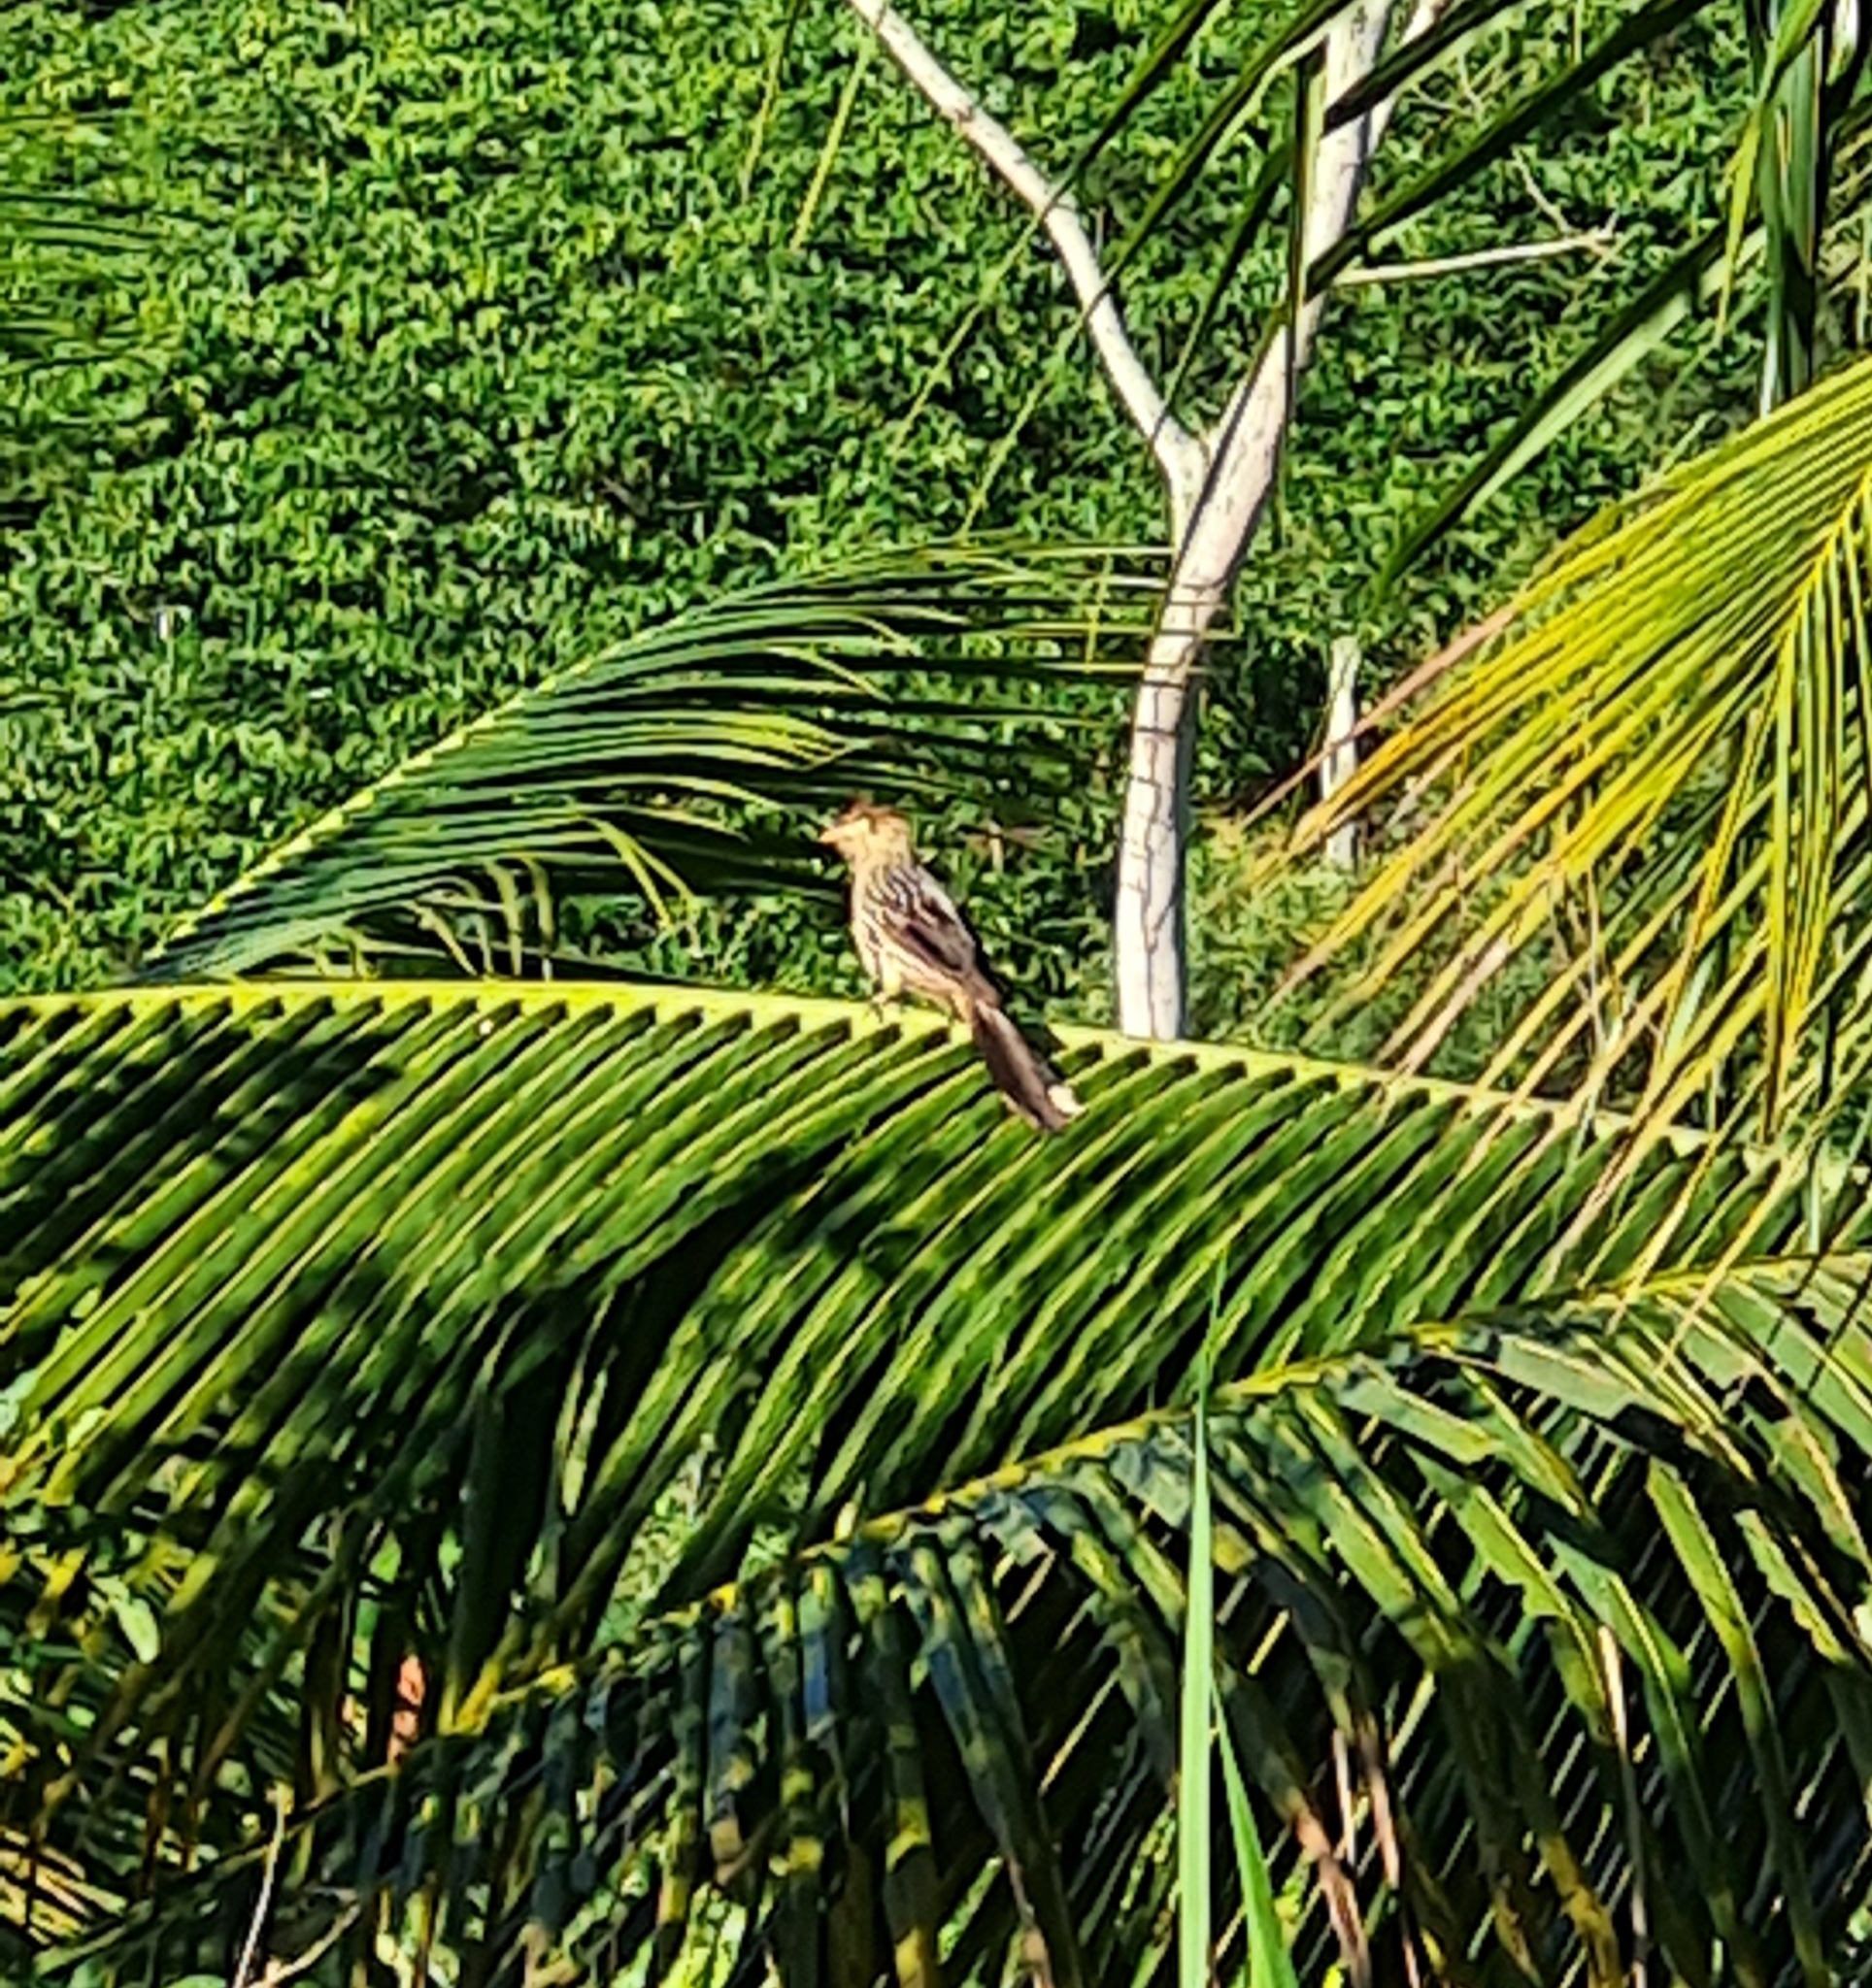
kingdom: Animalia
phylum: Chordata
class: Aves
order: Cuculiformes
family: Cuculidae
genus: Guira
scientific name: Guira guira
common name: Guira cuckoo
